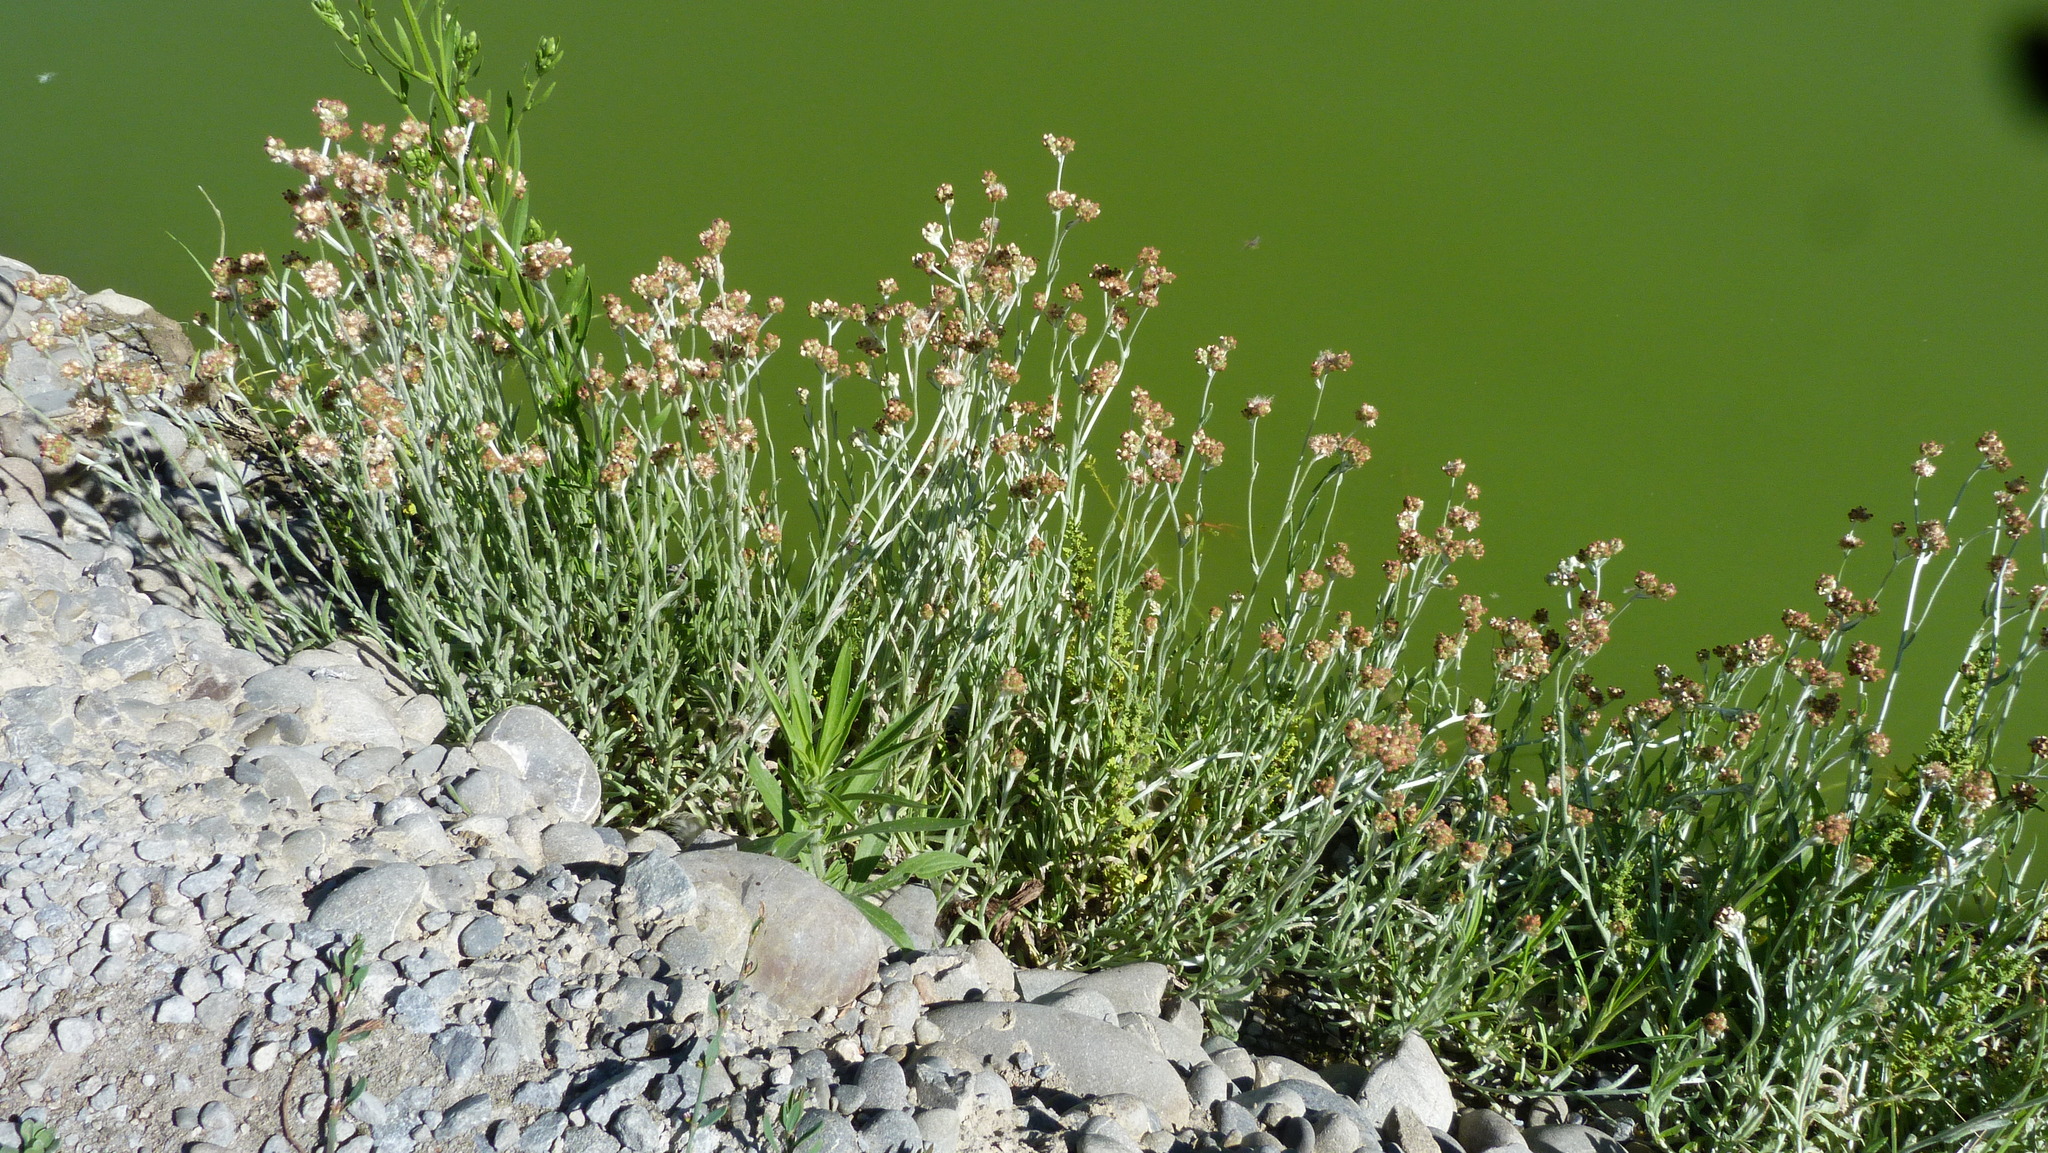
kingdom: Plantae
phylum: Tracheophyta
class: Magnoliopsida
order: Asterales
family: Asteraceae
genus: Helichrysum
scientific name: Helichrysum luteoalbum
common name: Daisy
